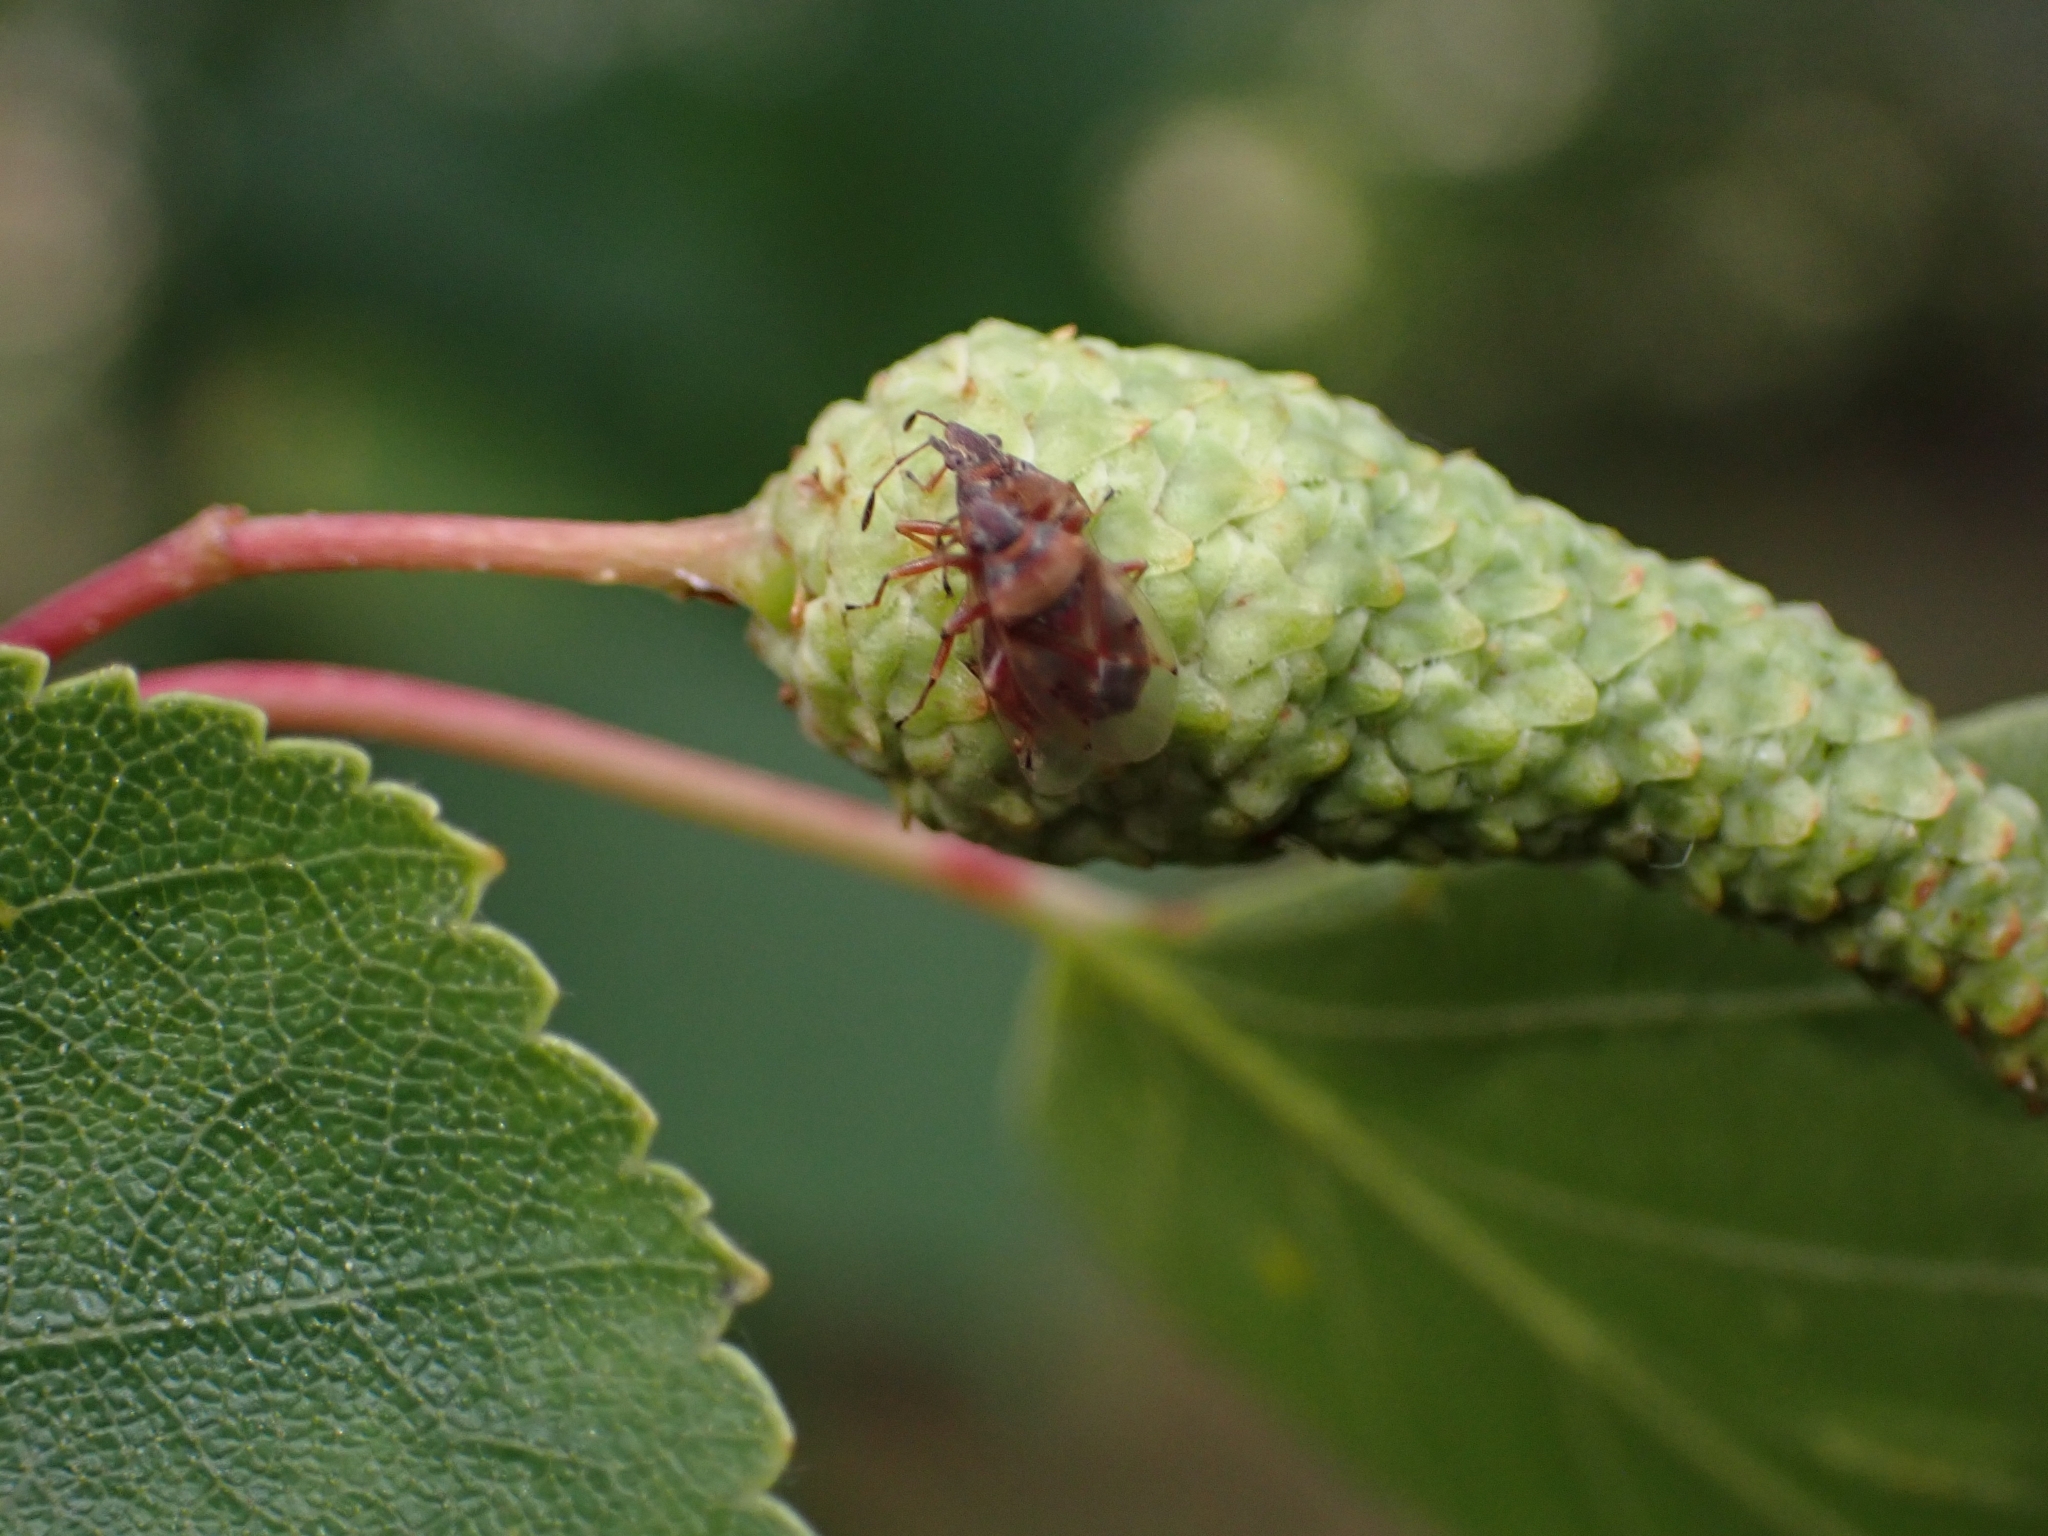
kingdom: Animalia
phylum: Arthropoda
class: Insecta
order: Hemiptera
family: Lygaeidae
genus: Kleidocerys
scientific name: Kleidocerys resedae
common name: Birch catkin bug
